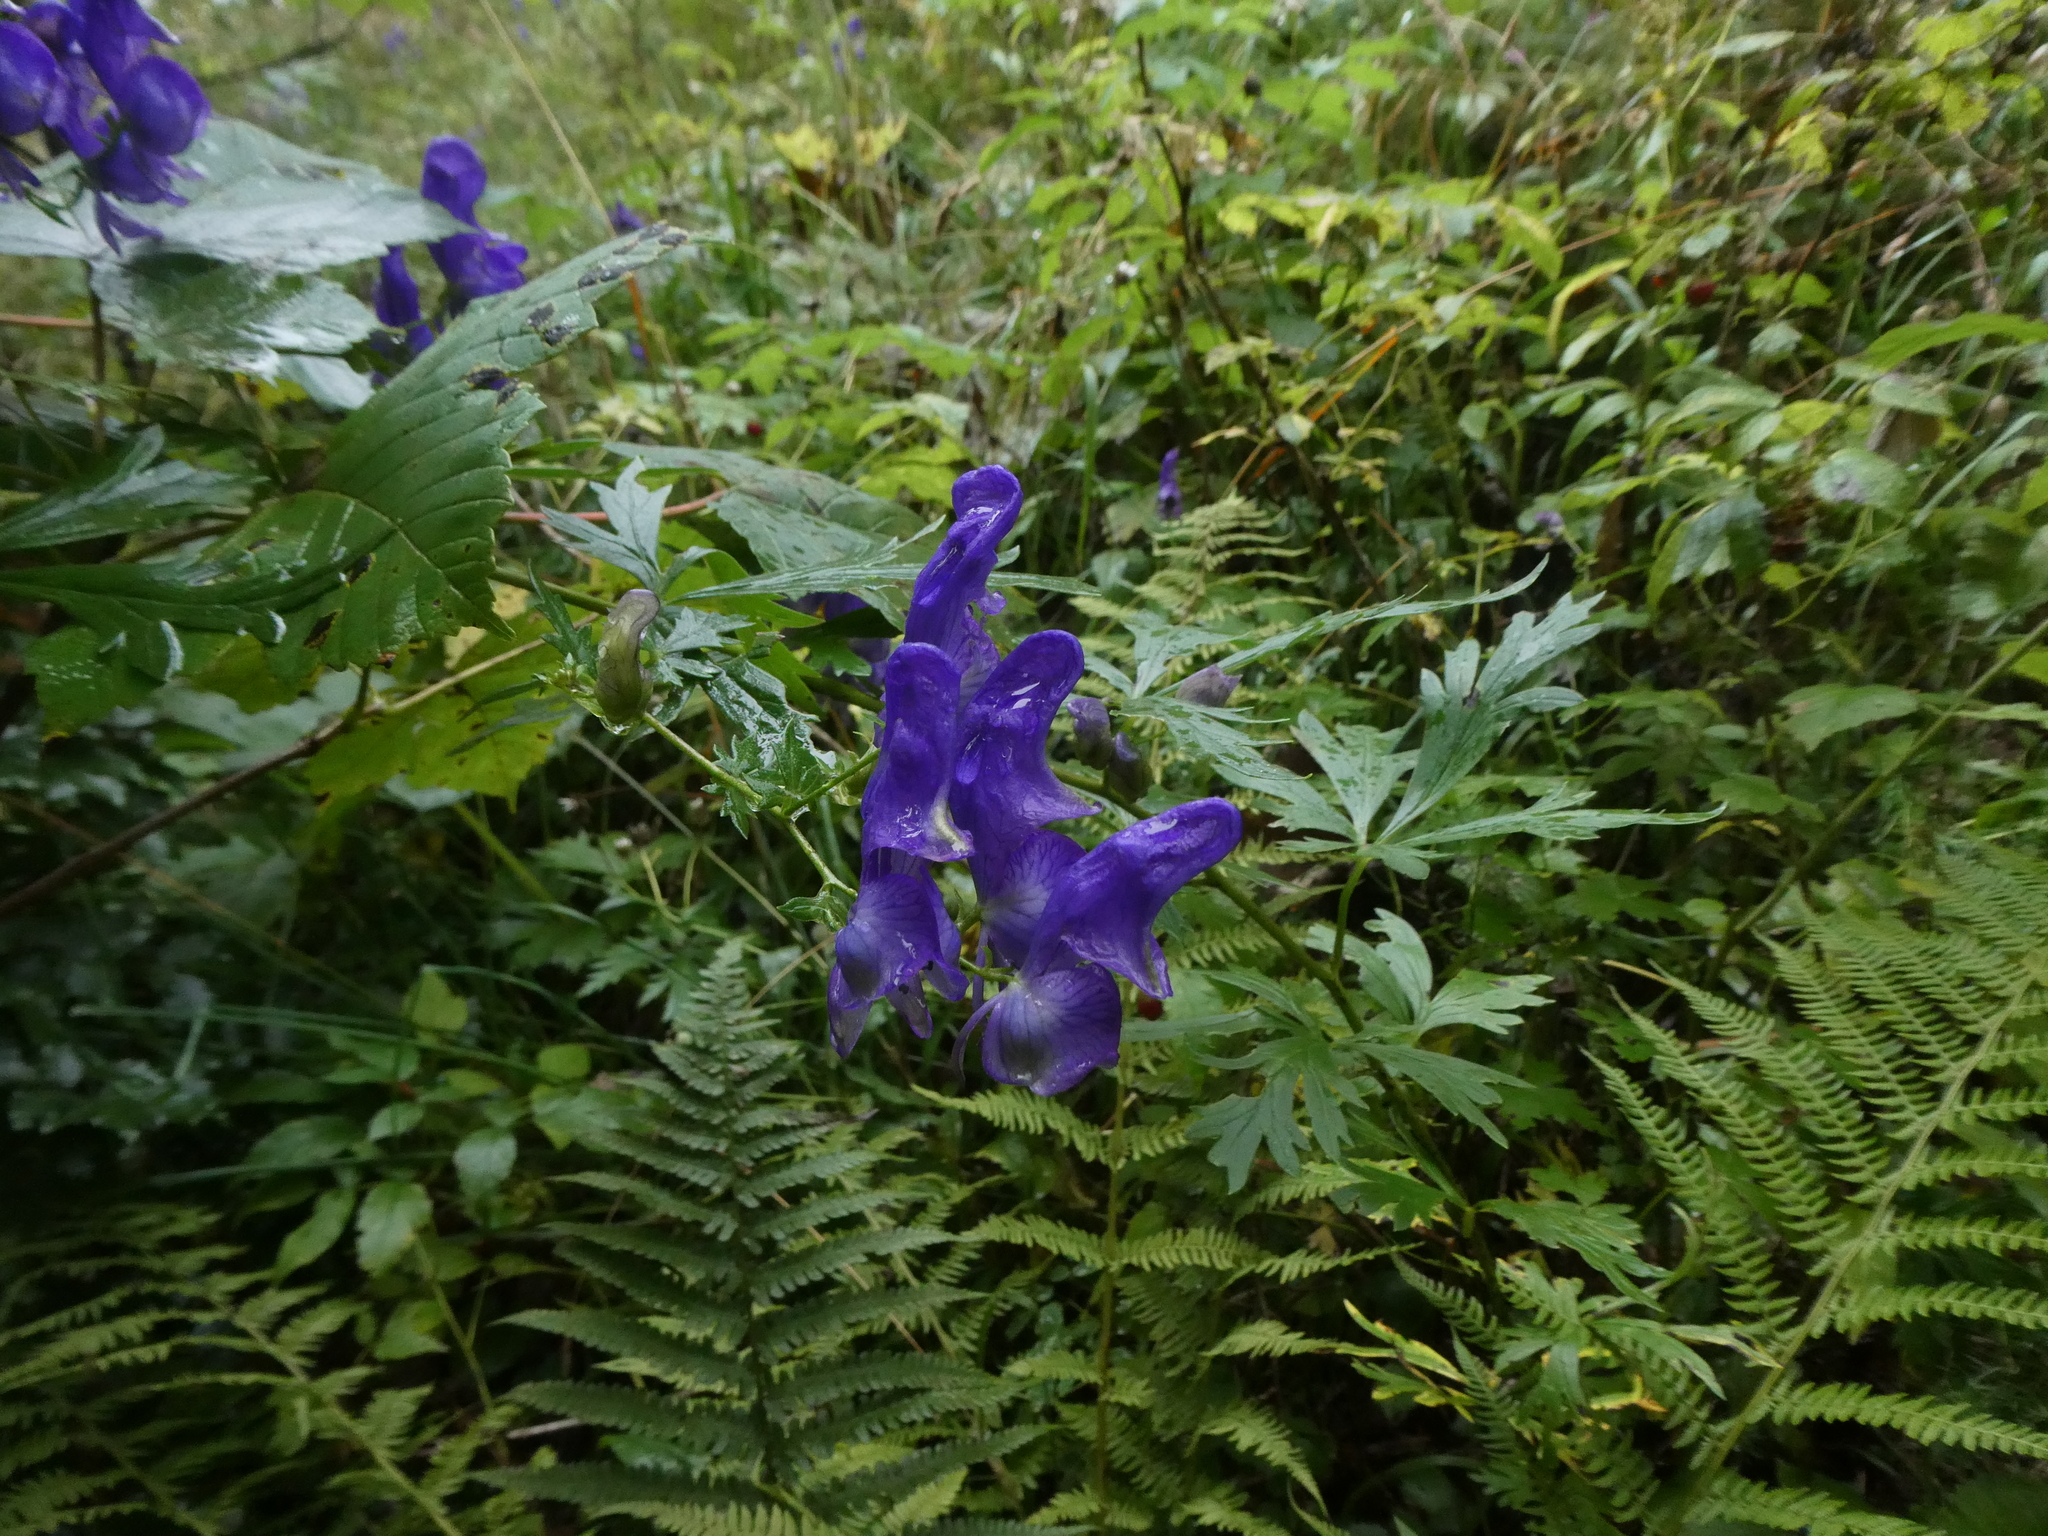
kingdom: Plantae
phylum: Tracheophyta
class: Magnoliopsida
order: Ranunculales
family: Ranunculaceae
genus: Aconitum
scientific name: Aconitum variegatum
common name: Manchurian monkshood
